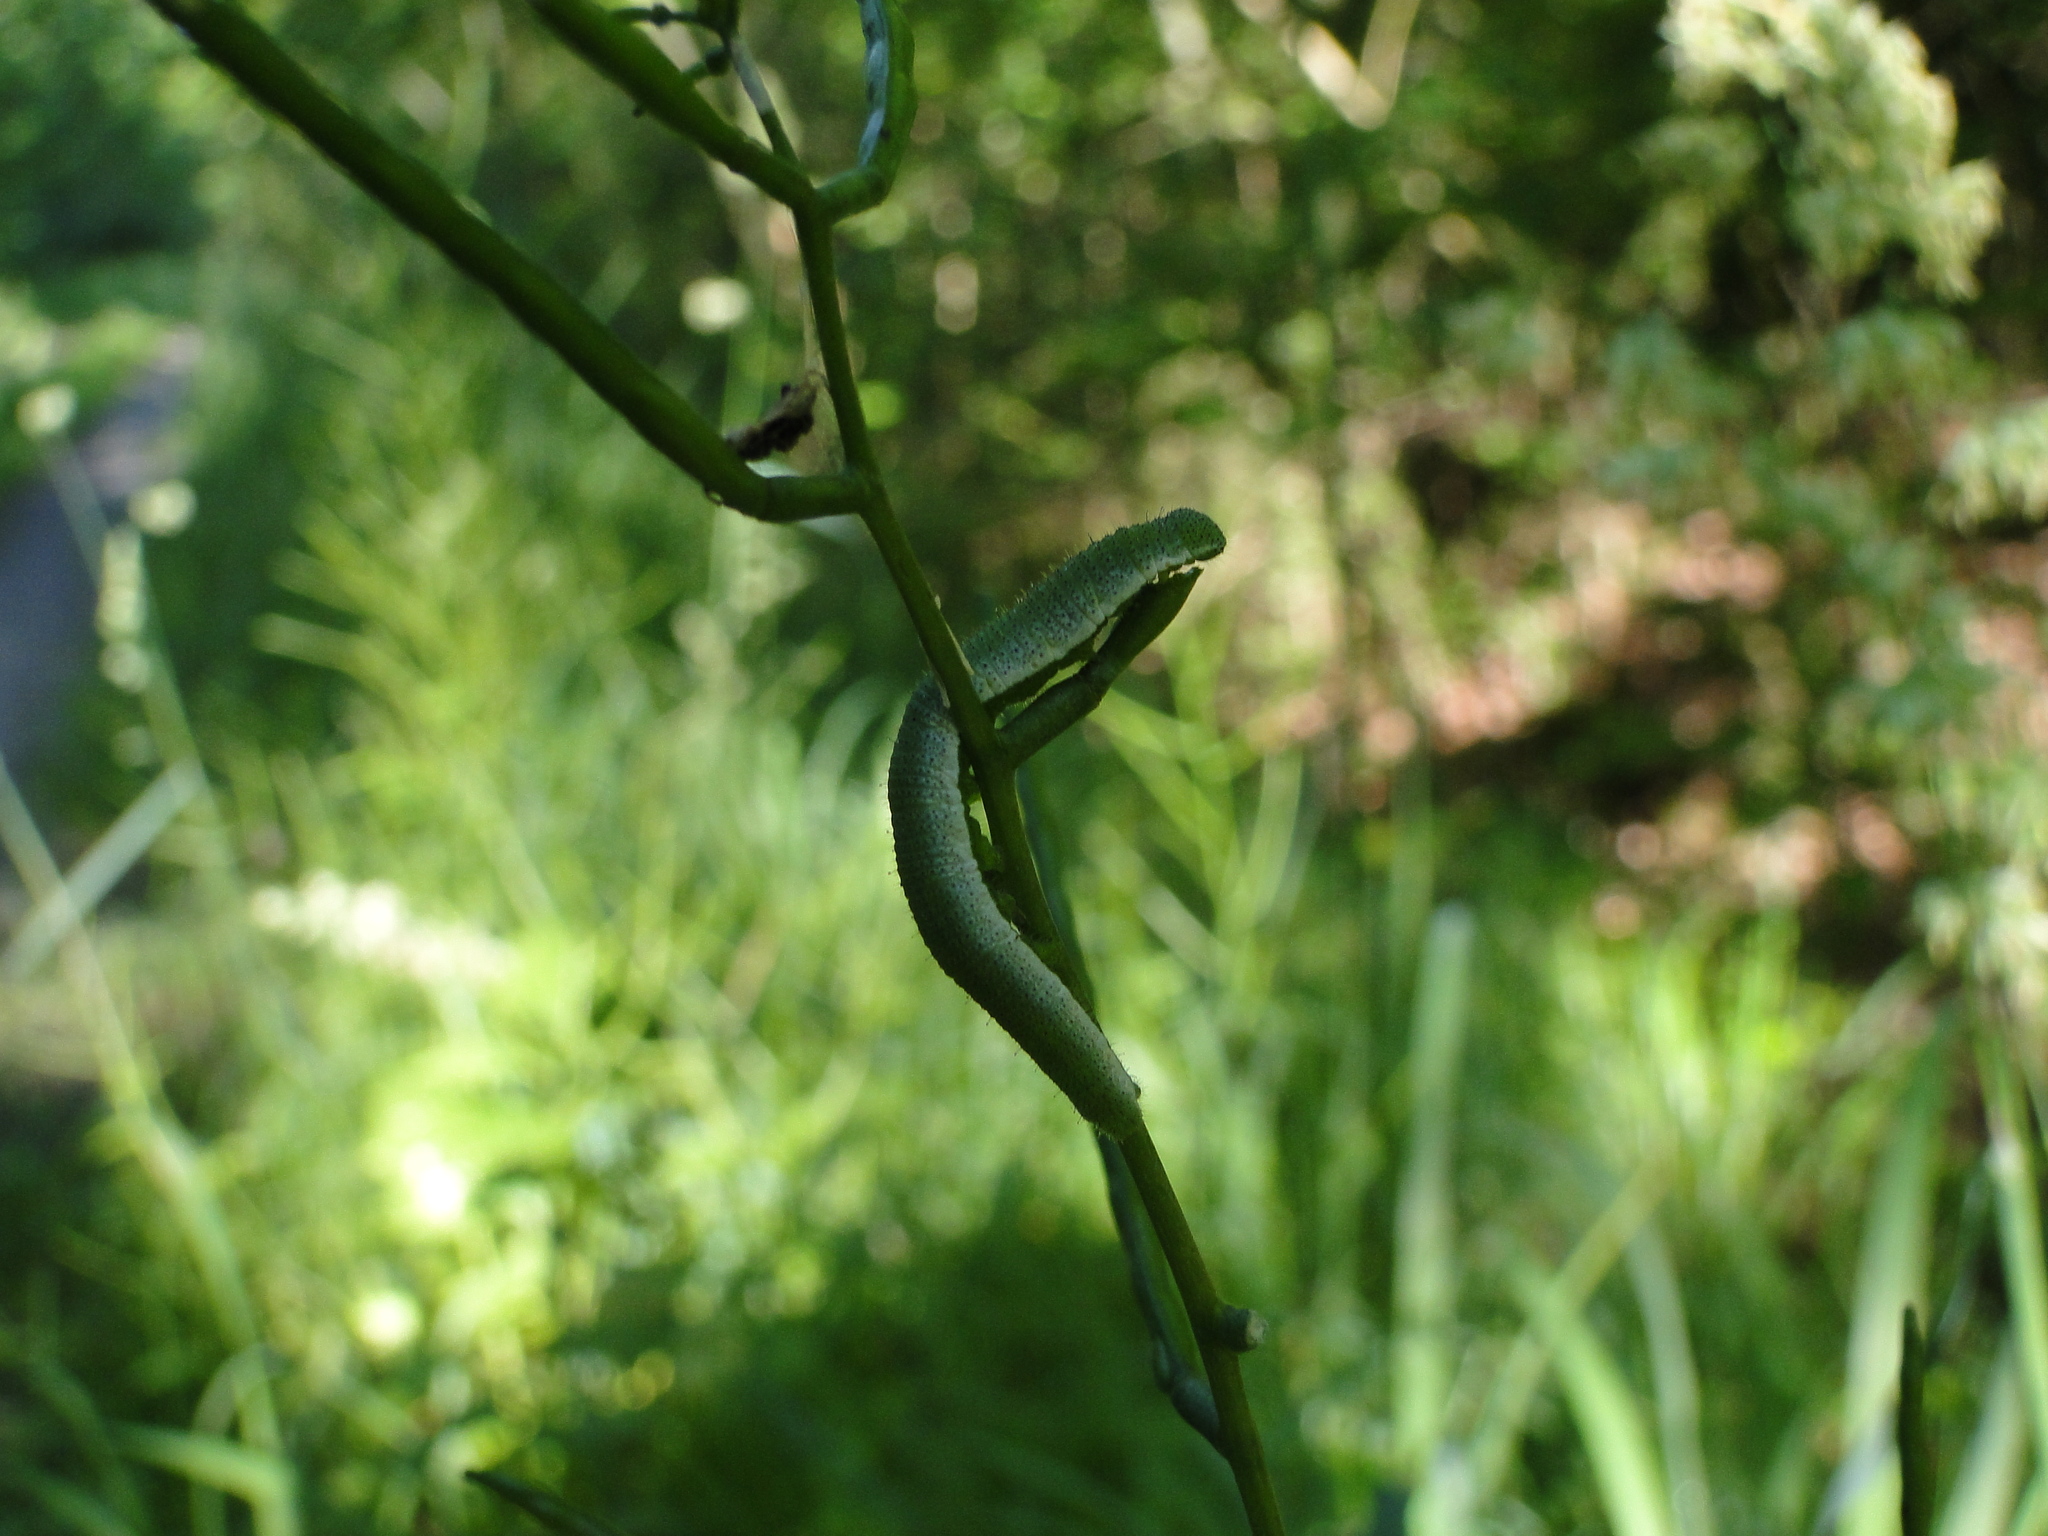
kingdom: Animalia
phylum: Arthropoda
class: Insecta
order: Lepidoptera
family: Pieridae
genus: Anthocharis
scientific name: Anthocharis cardamines
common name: Orange-tip
